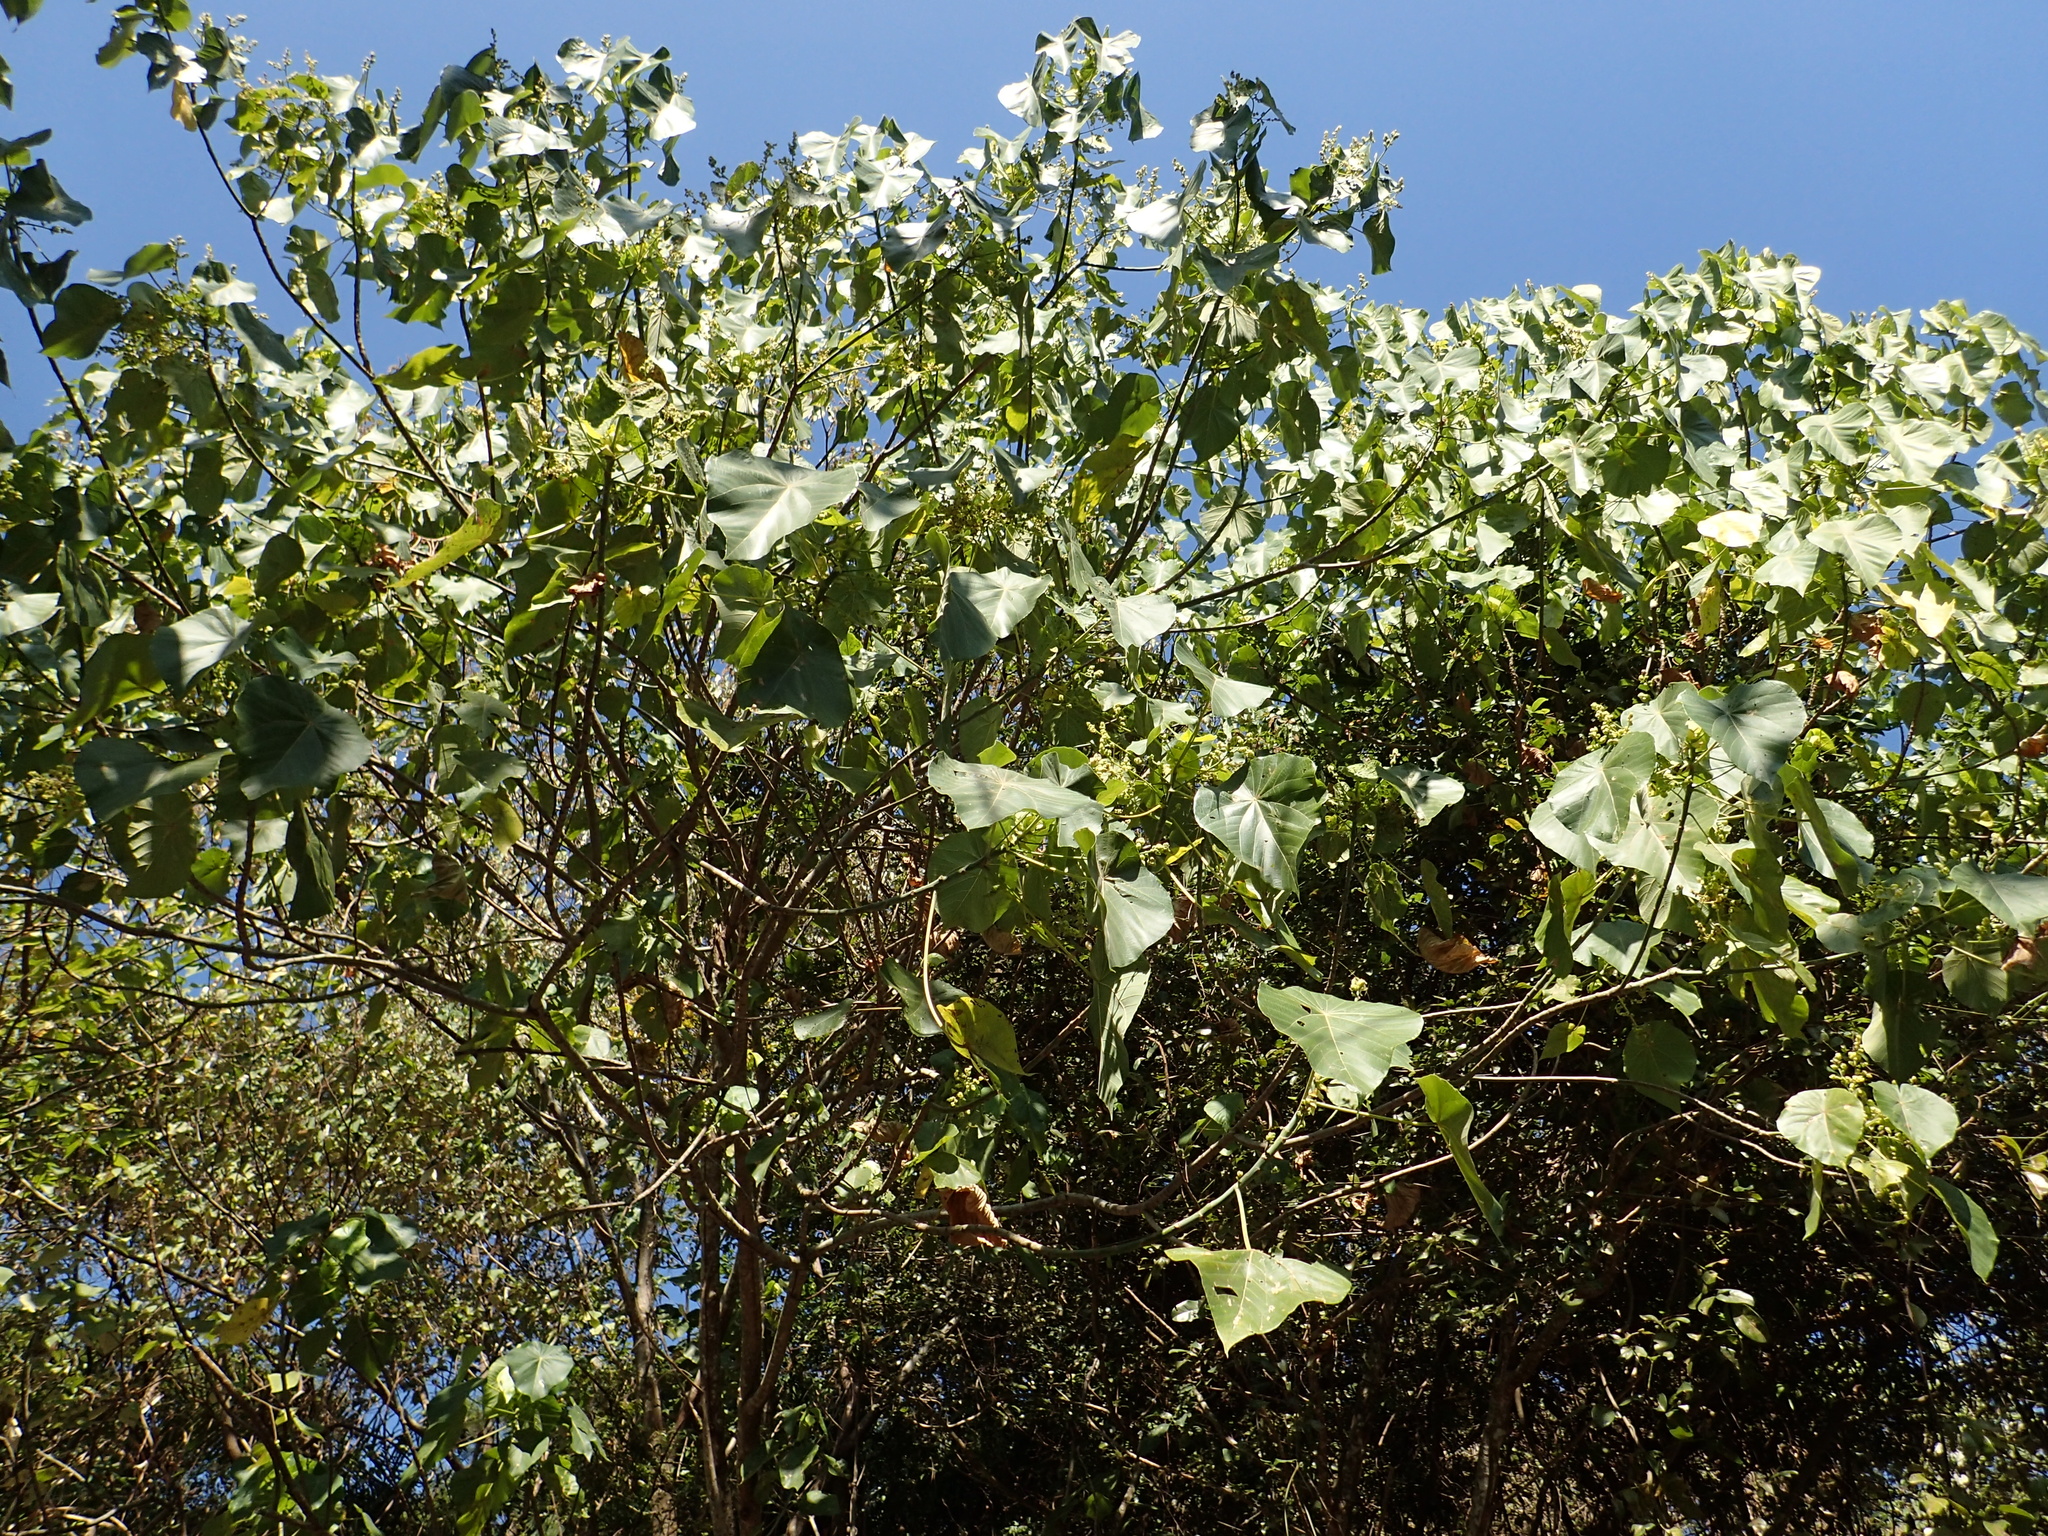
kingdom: Plantae
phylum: Tracheophyta
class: Magnoliopsida
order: Malpighiales
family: Euphorbiaceae
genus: Macaranga
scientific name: Macaranga tanarius
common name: Parasol leaf tree
